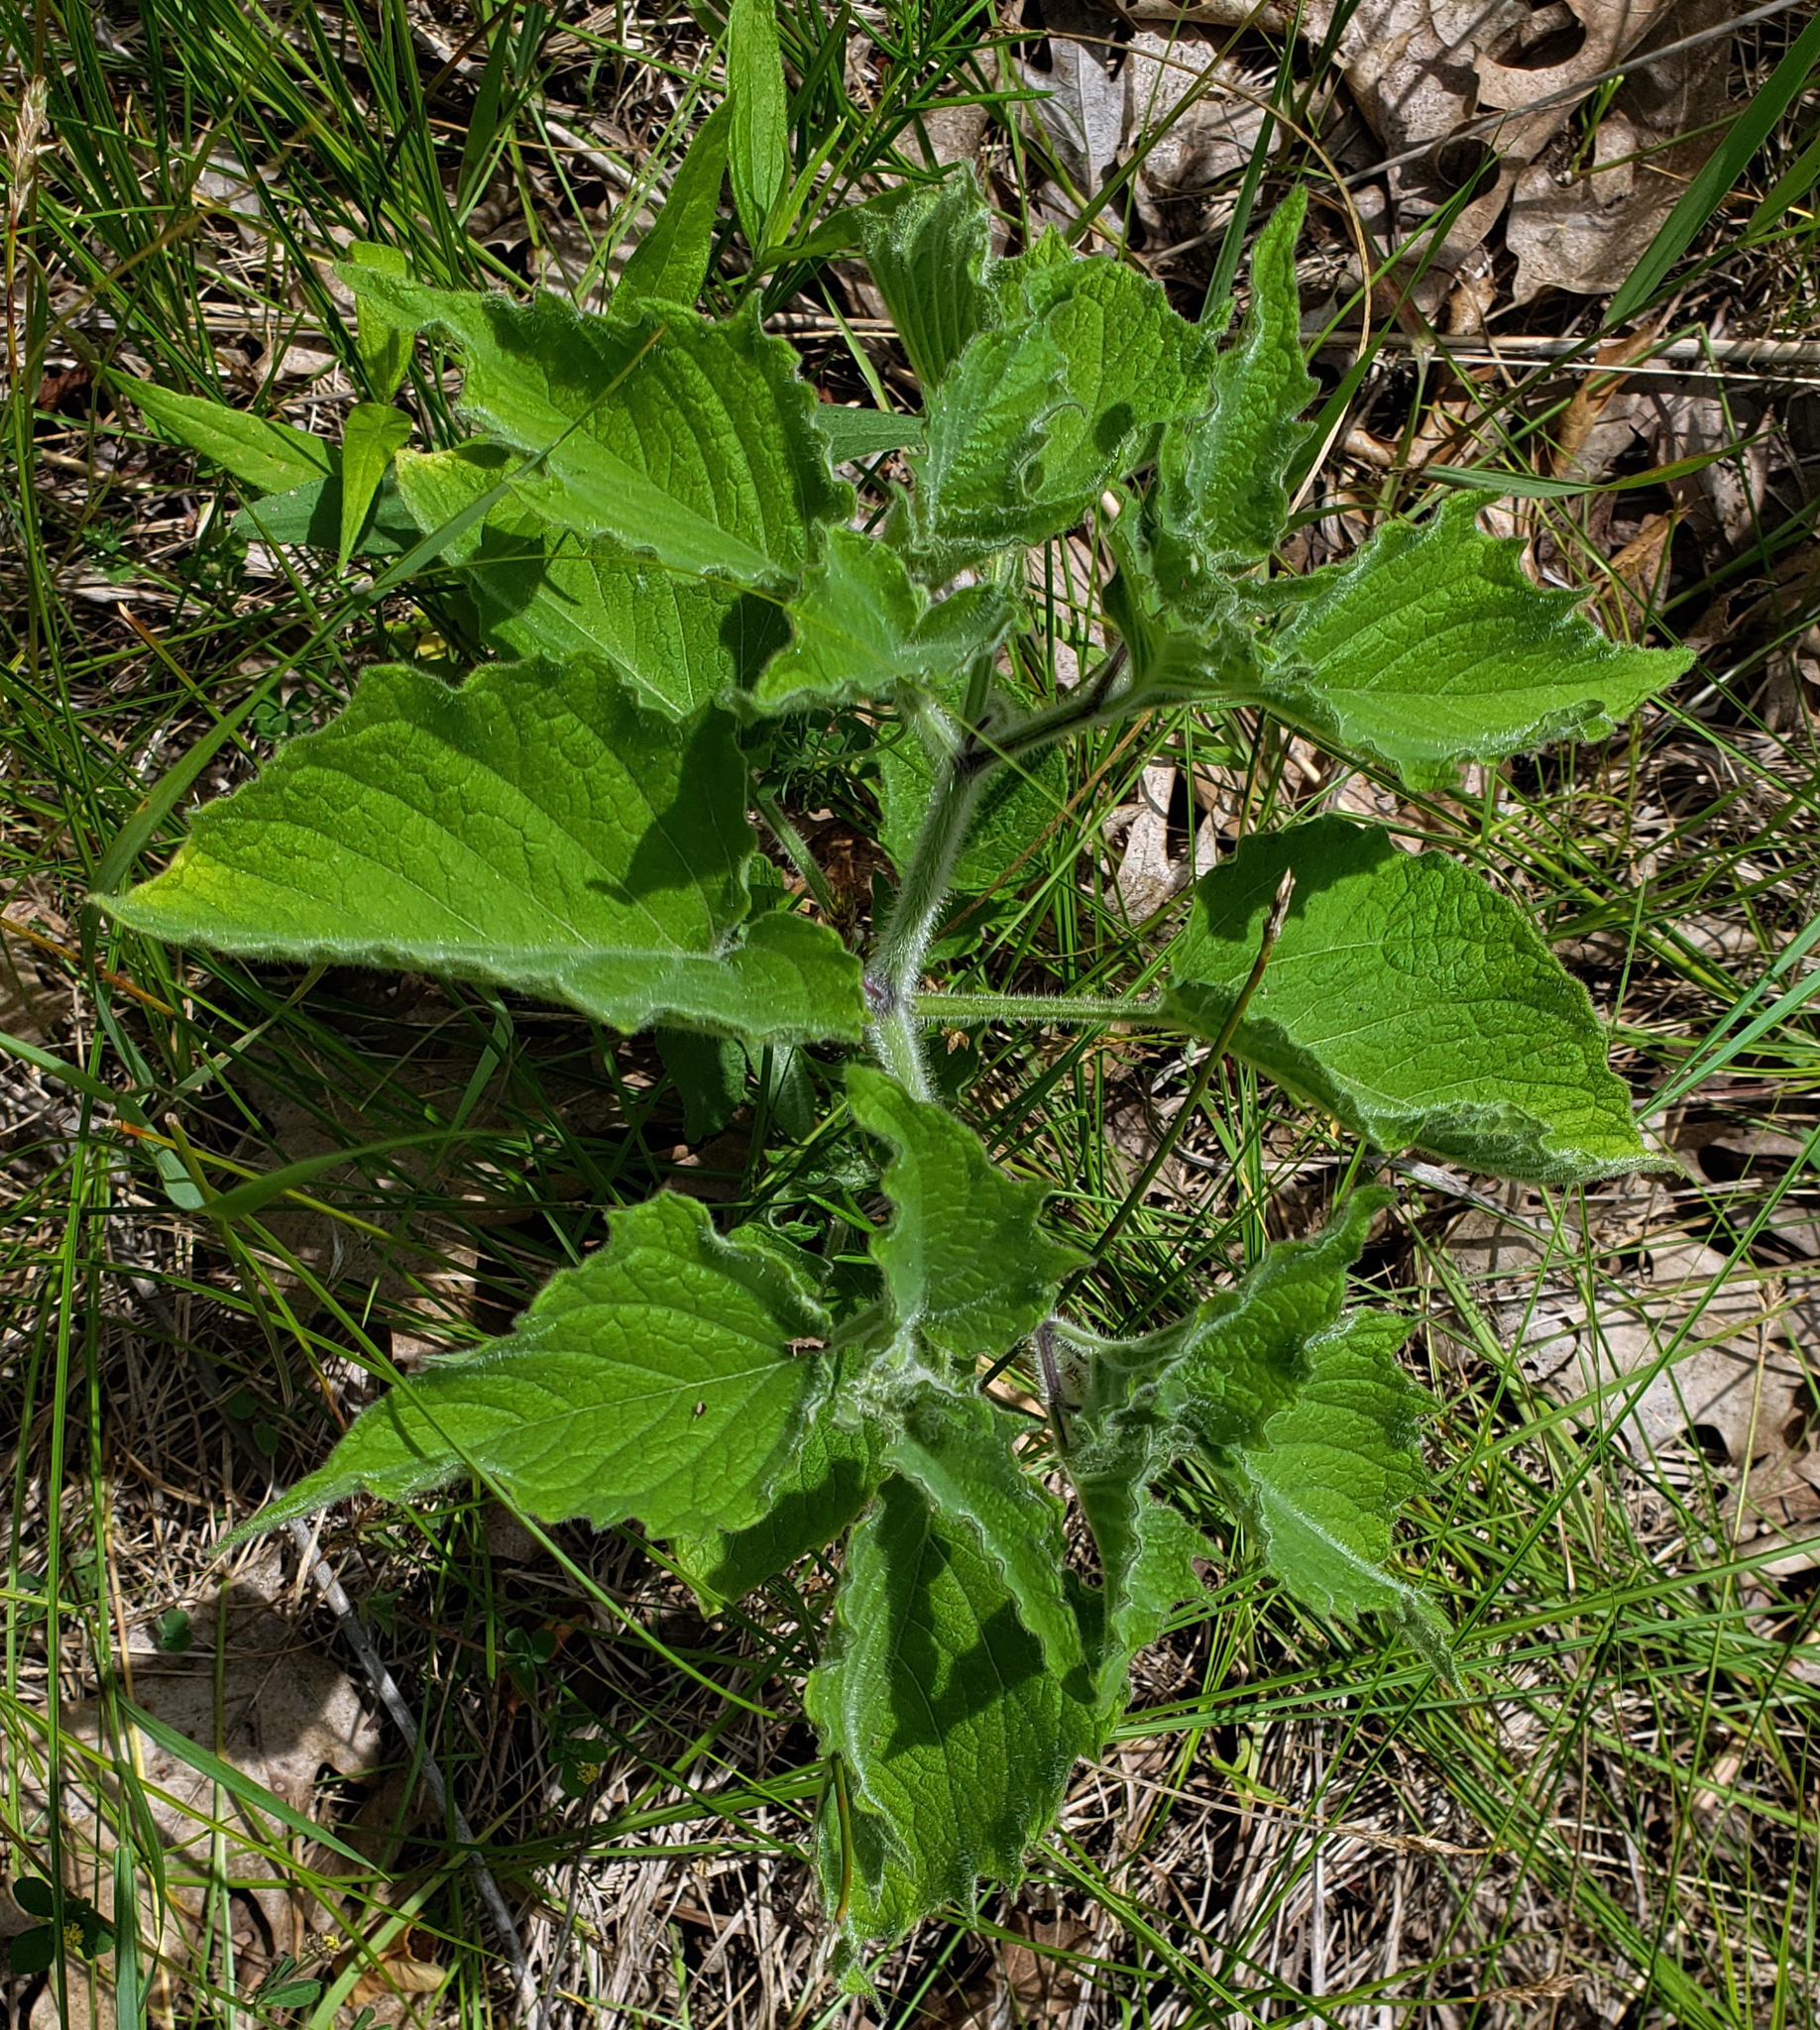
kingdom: Plantae
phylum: Tracheophyta
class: Magnoliopsida
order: Solanales
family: Solanaceae
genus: Physalis
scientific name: Physalis heterophylla
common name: Clammy ground-cherry
